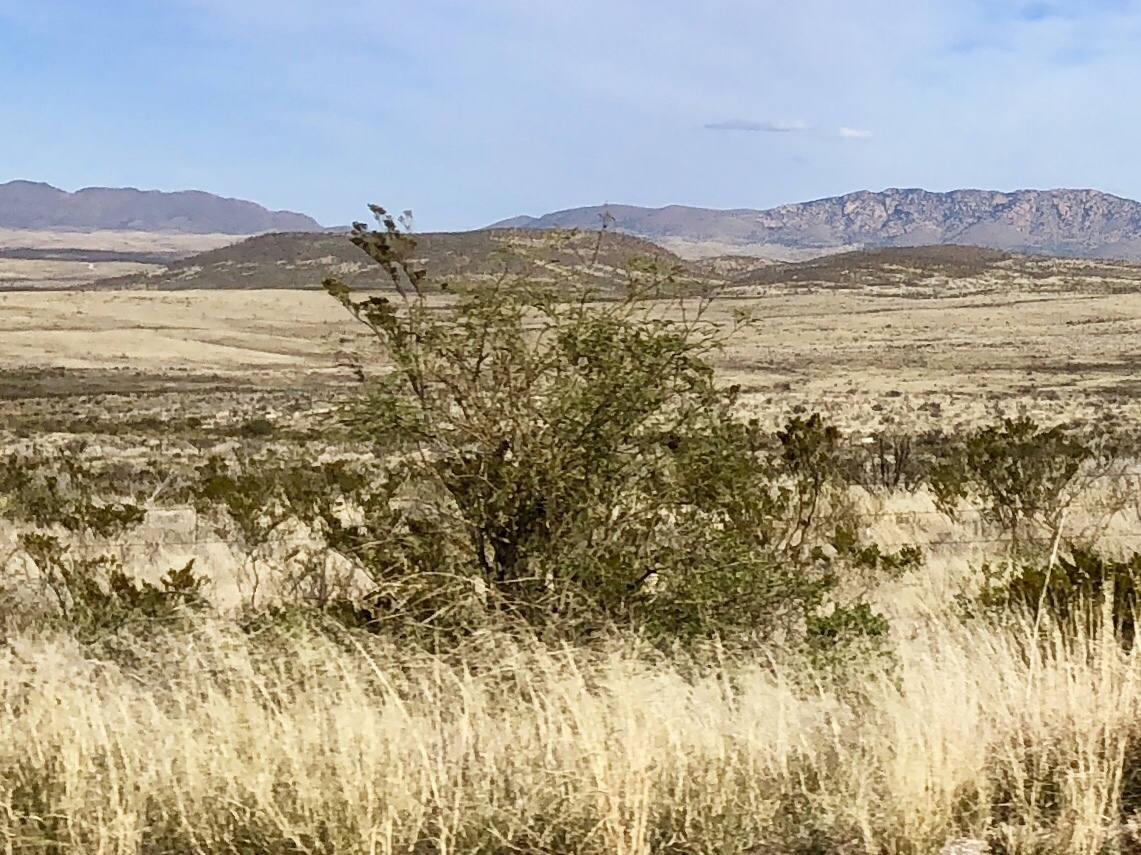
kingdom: Plantae
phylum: Tracheophyta
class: Magnoliopsida
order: Zygophyllales
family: Zygophyllaceae
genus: Larrea
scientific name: Larrea tridentata
